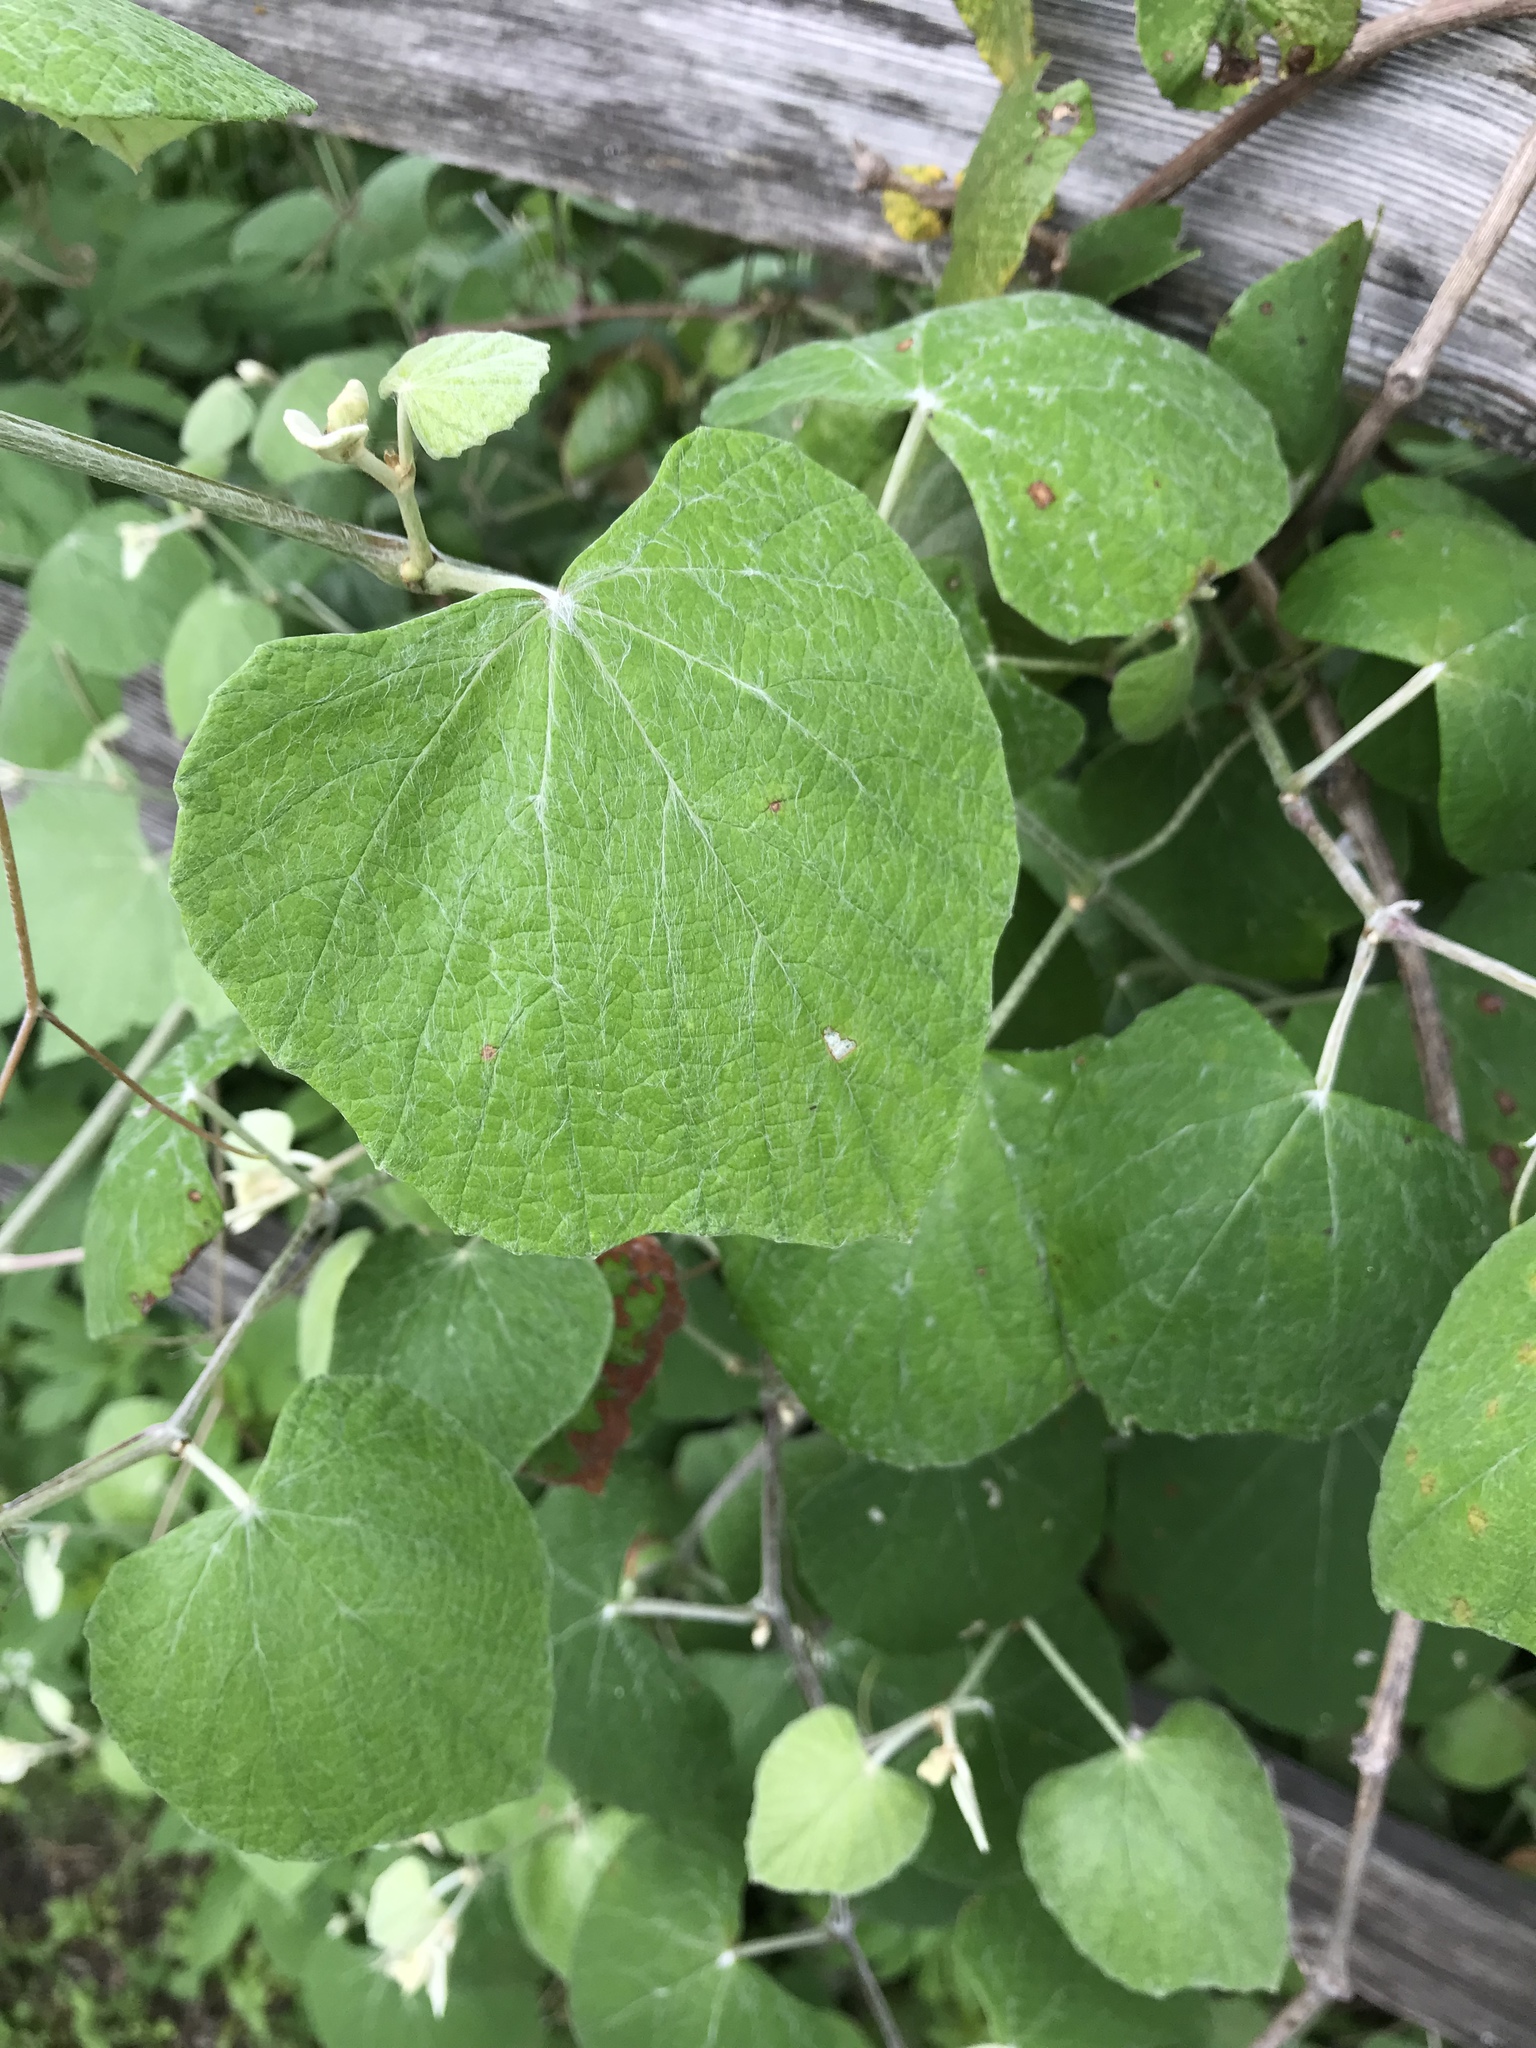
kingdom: Plantae
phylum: Tracheophyta
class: Magnoliopsida
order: Vitales
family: Vitaceae
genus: Vitis
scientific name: Vitis mustangensis
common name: Mustang grape
